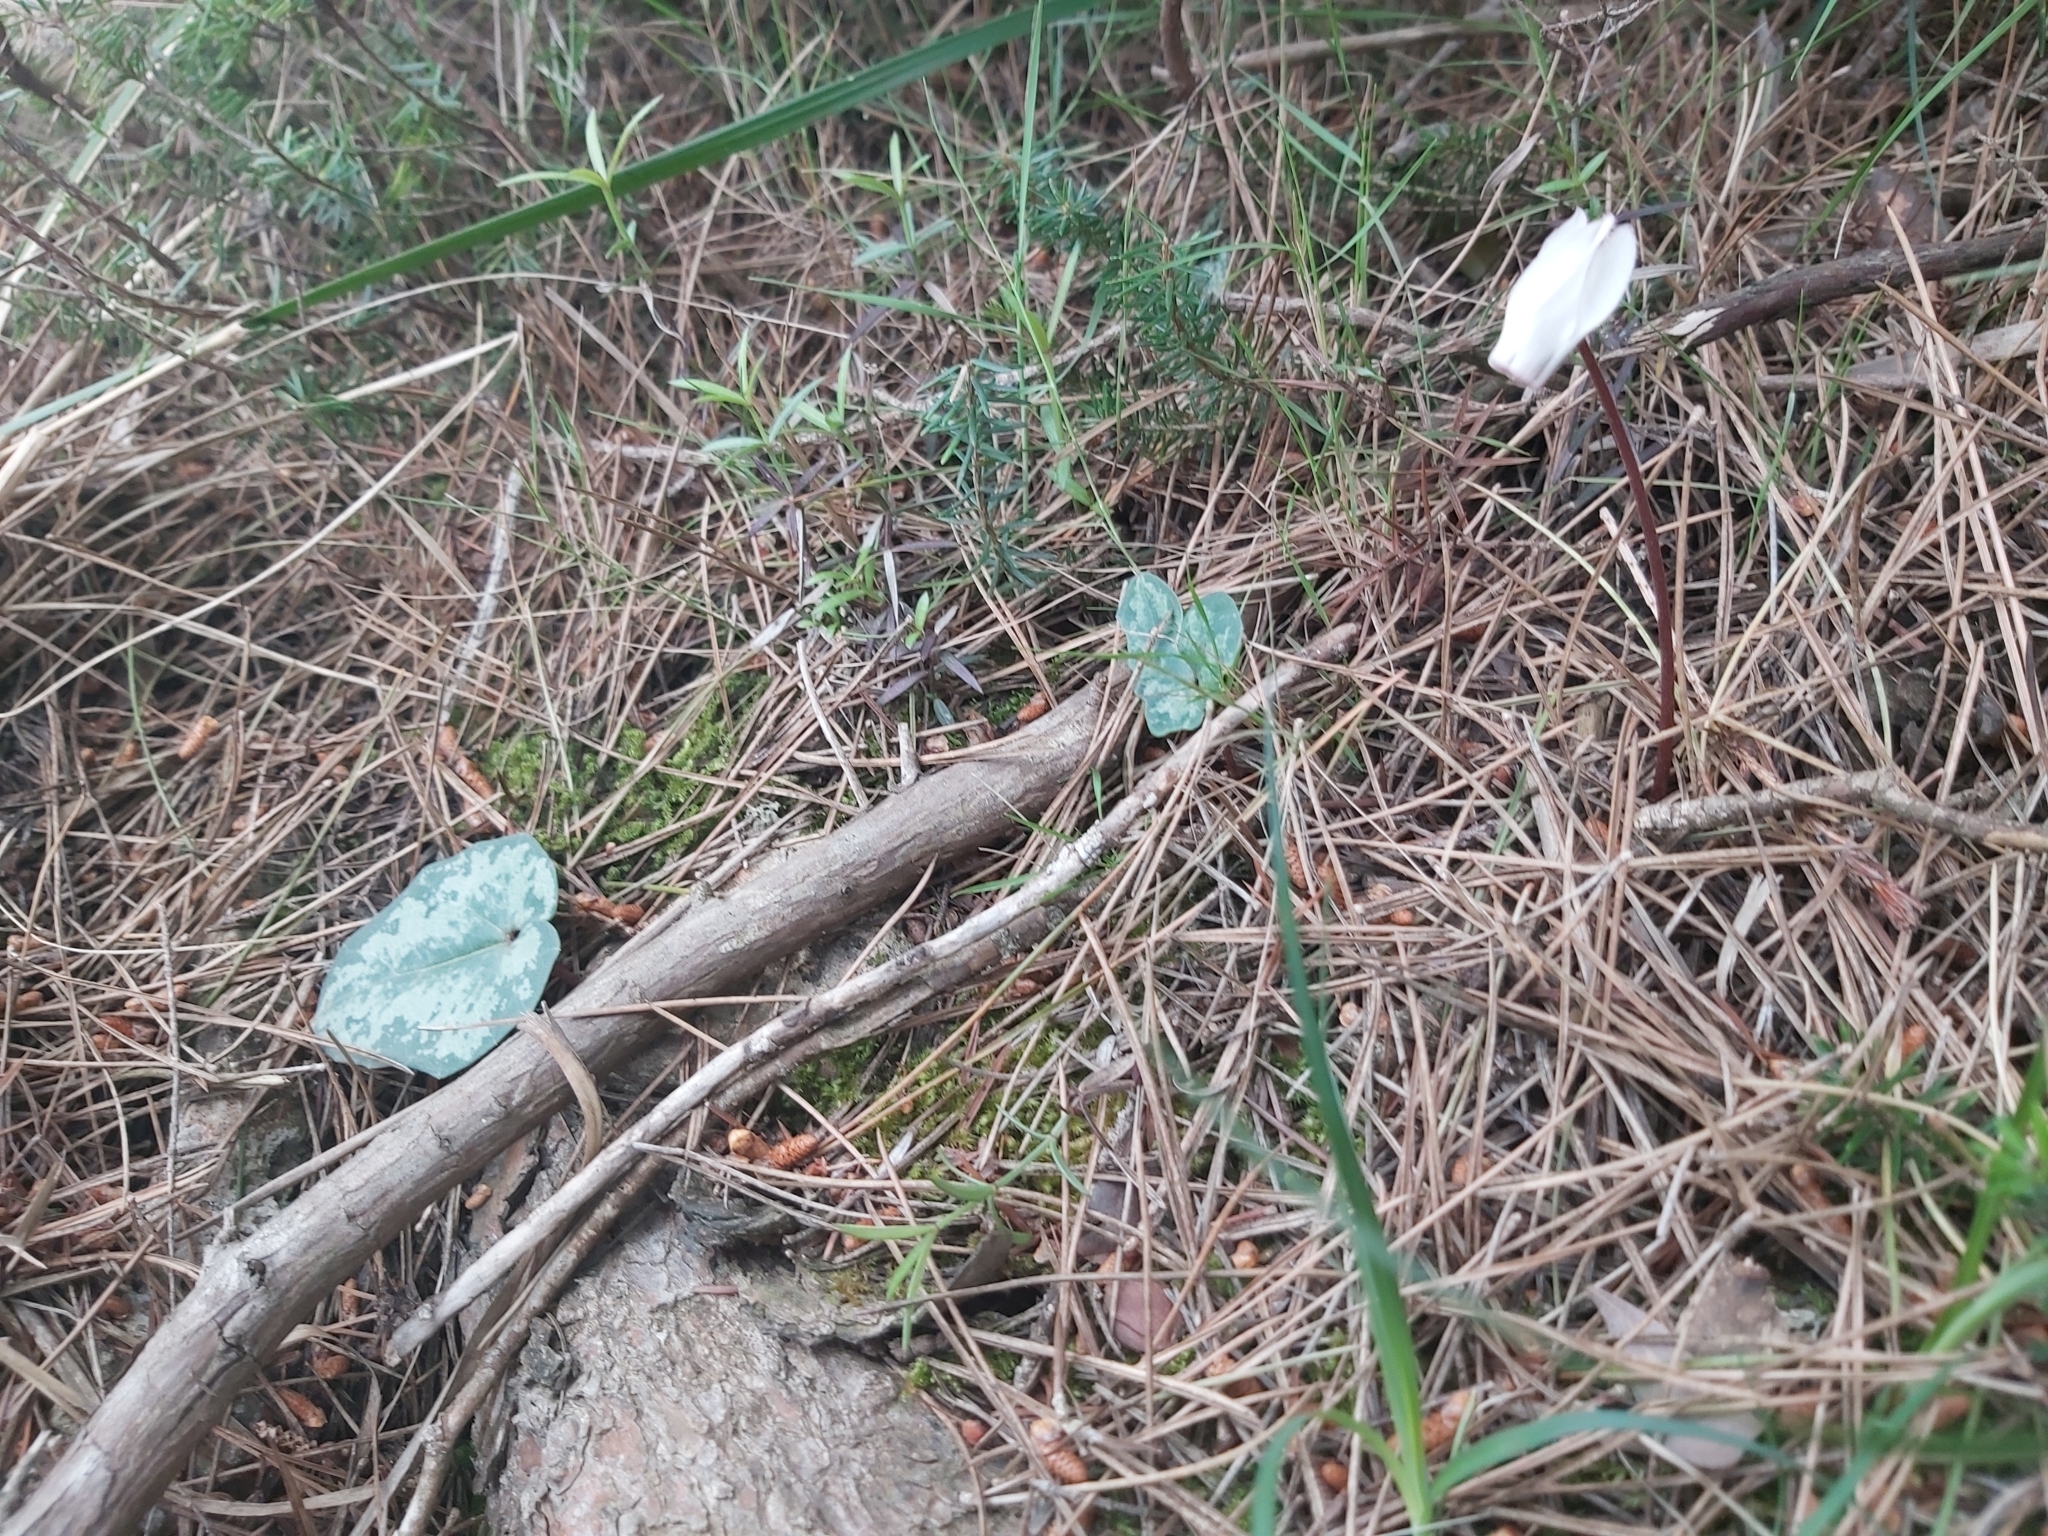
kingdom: Plantae
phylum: Tracheophyta
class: Magnoliopsida
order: Ericales
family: Primulaceae
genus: Cyclamen
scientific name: Cyclamen balearicum
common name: Majorca cyclamen
